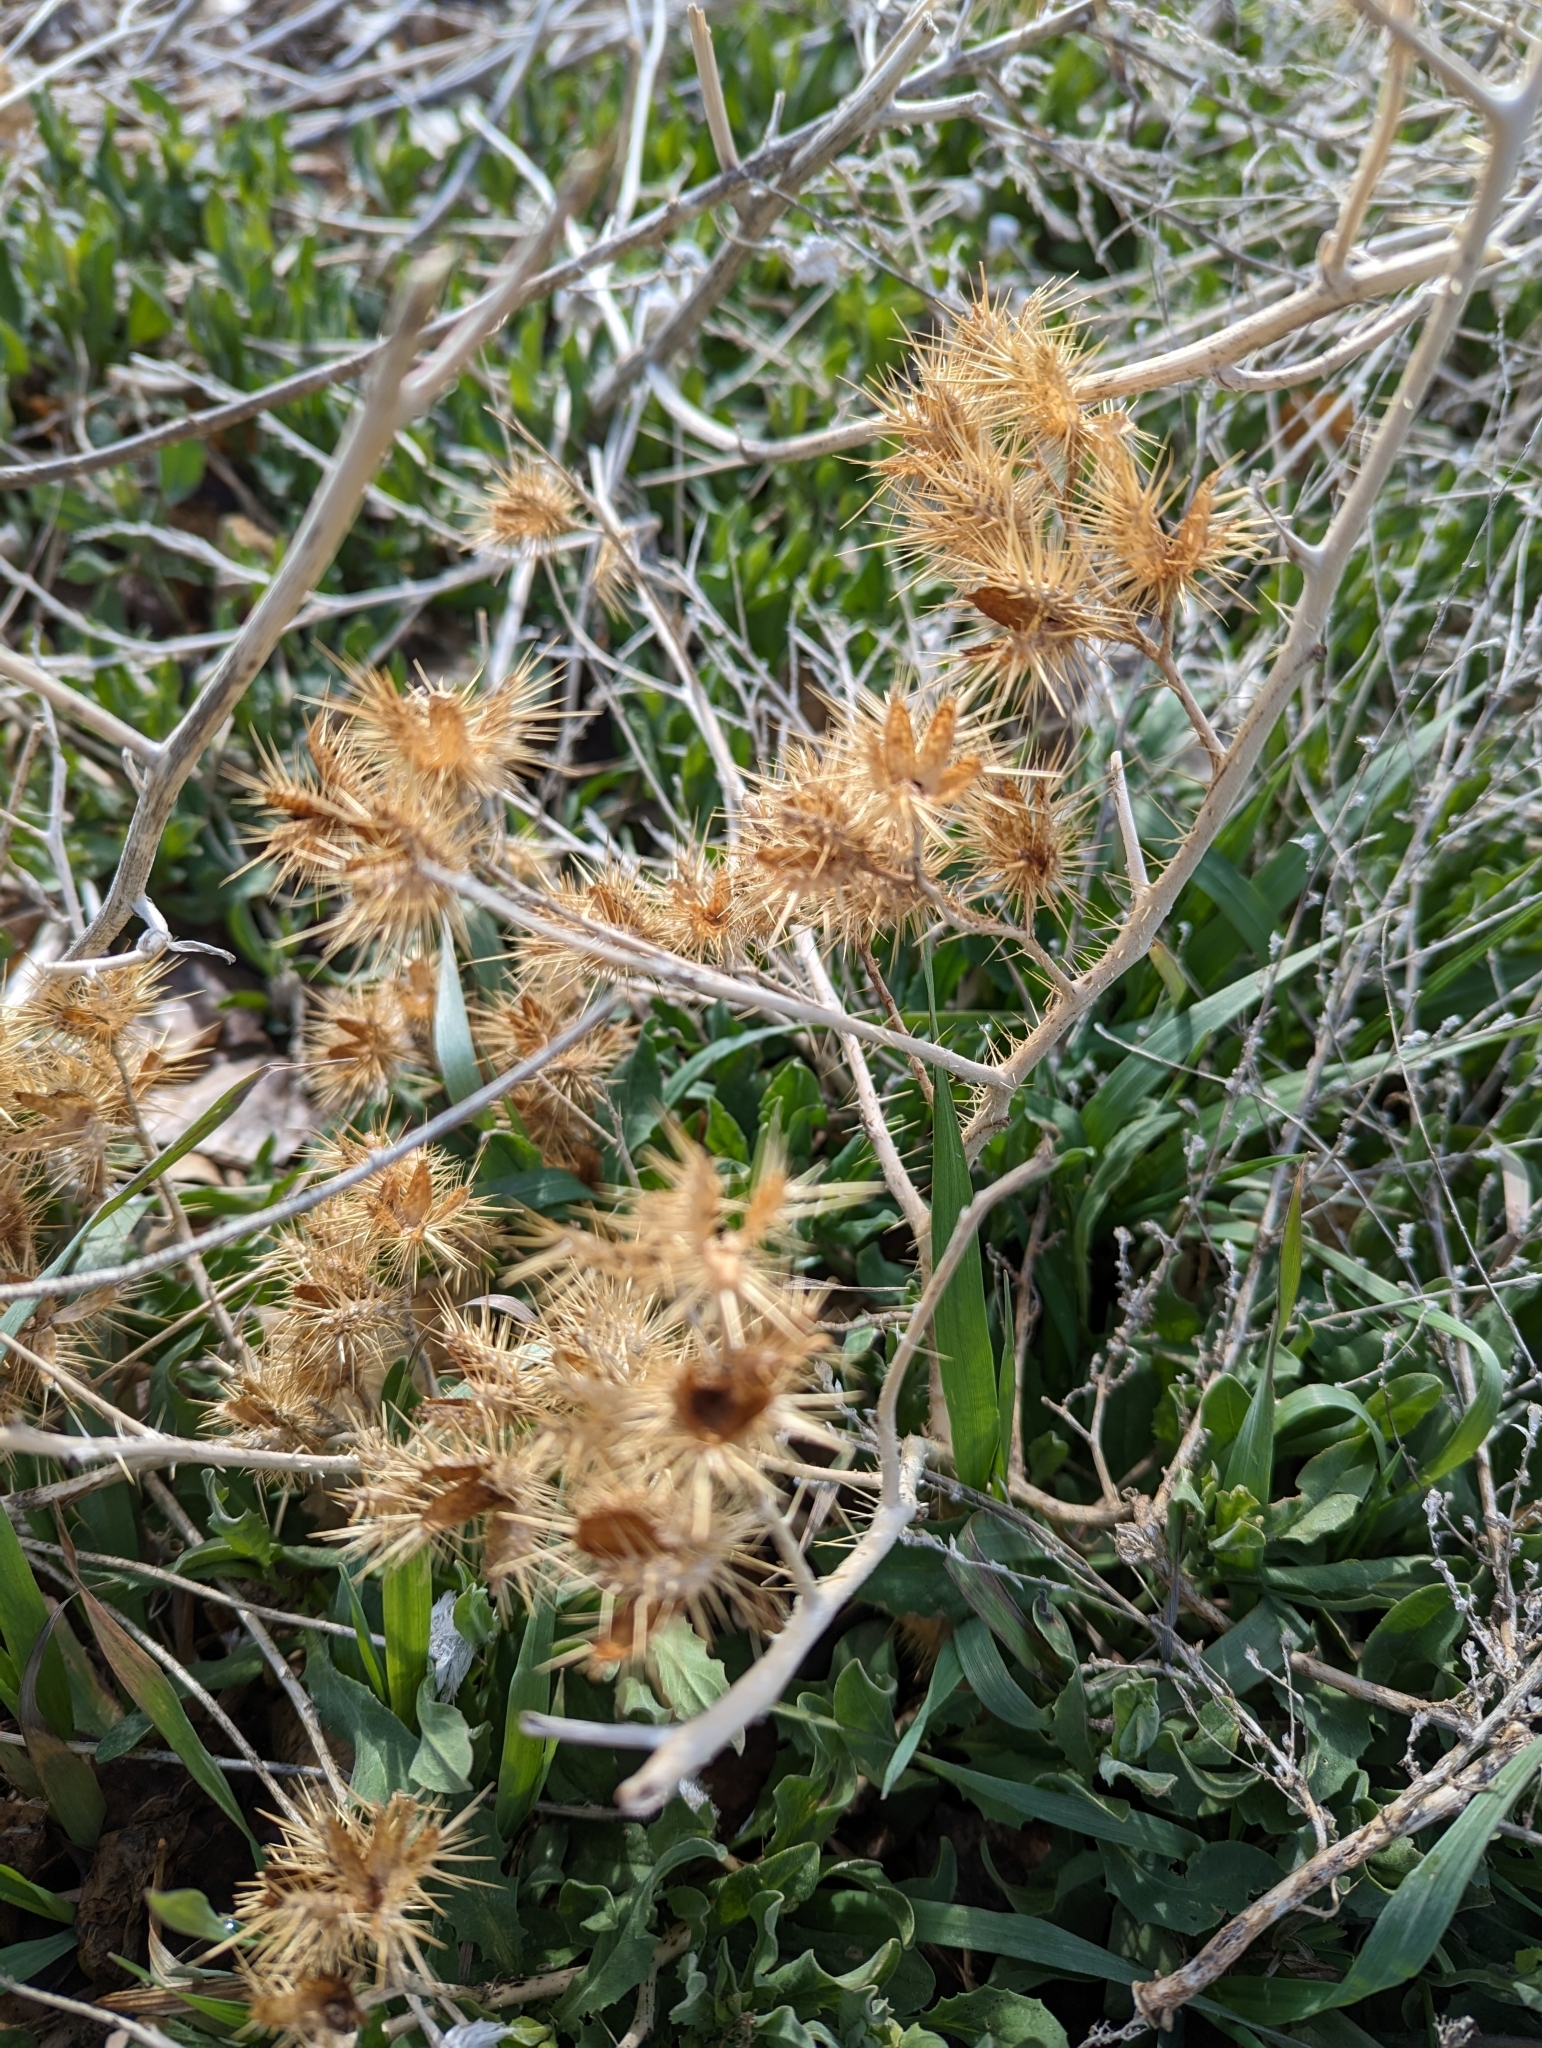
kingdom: Plantae
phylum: Tracheophyta
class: Magnoliopsida
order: Solanales
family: Solanaceae
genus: Solanum
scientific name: Solanum angustifolium
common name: Buffalobur nightshade
